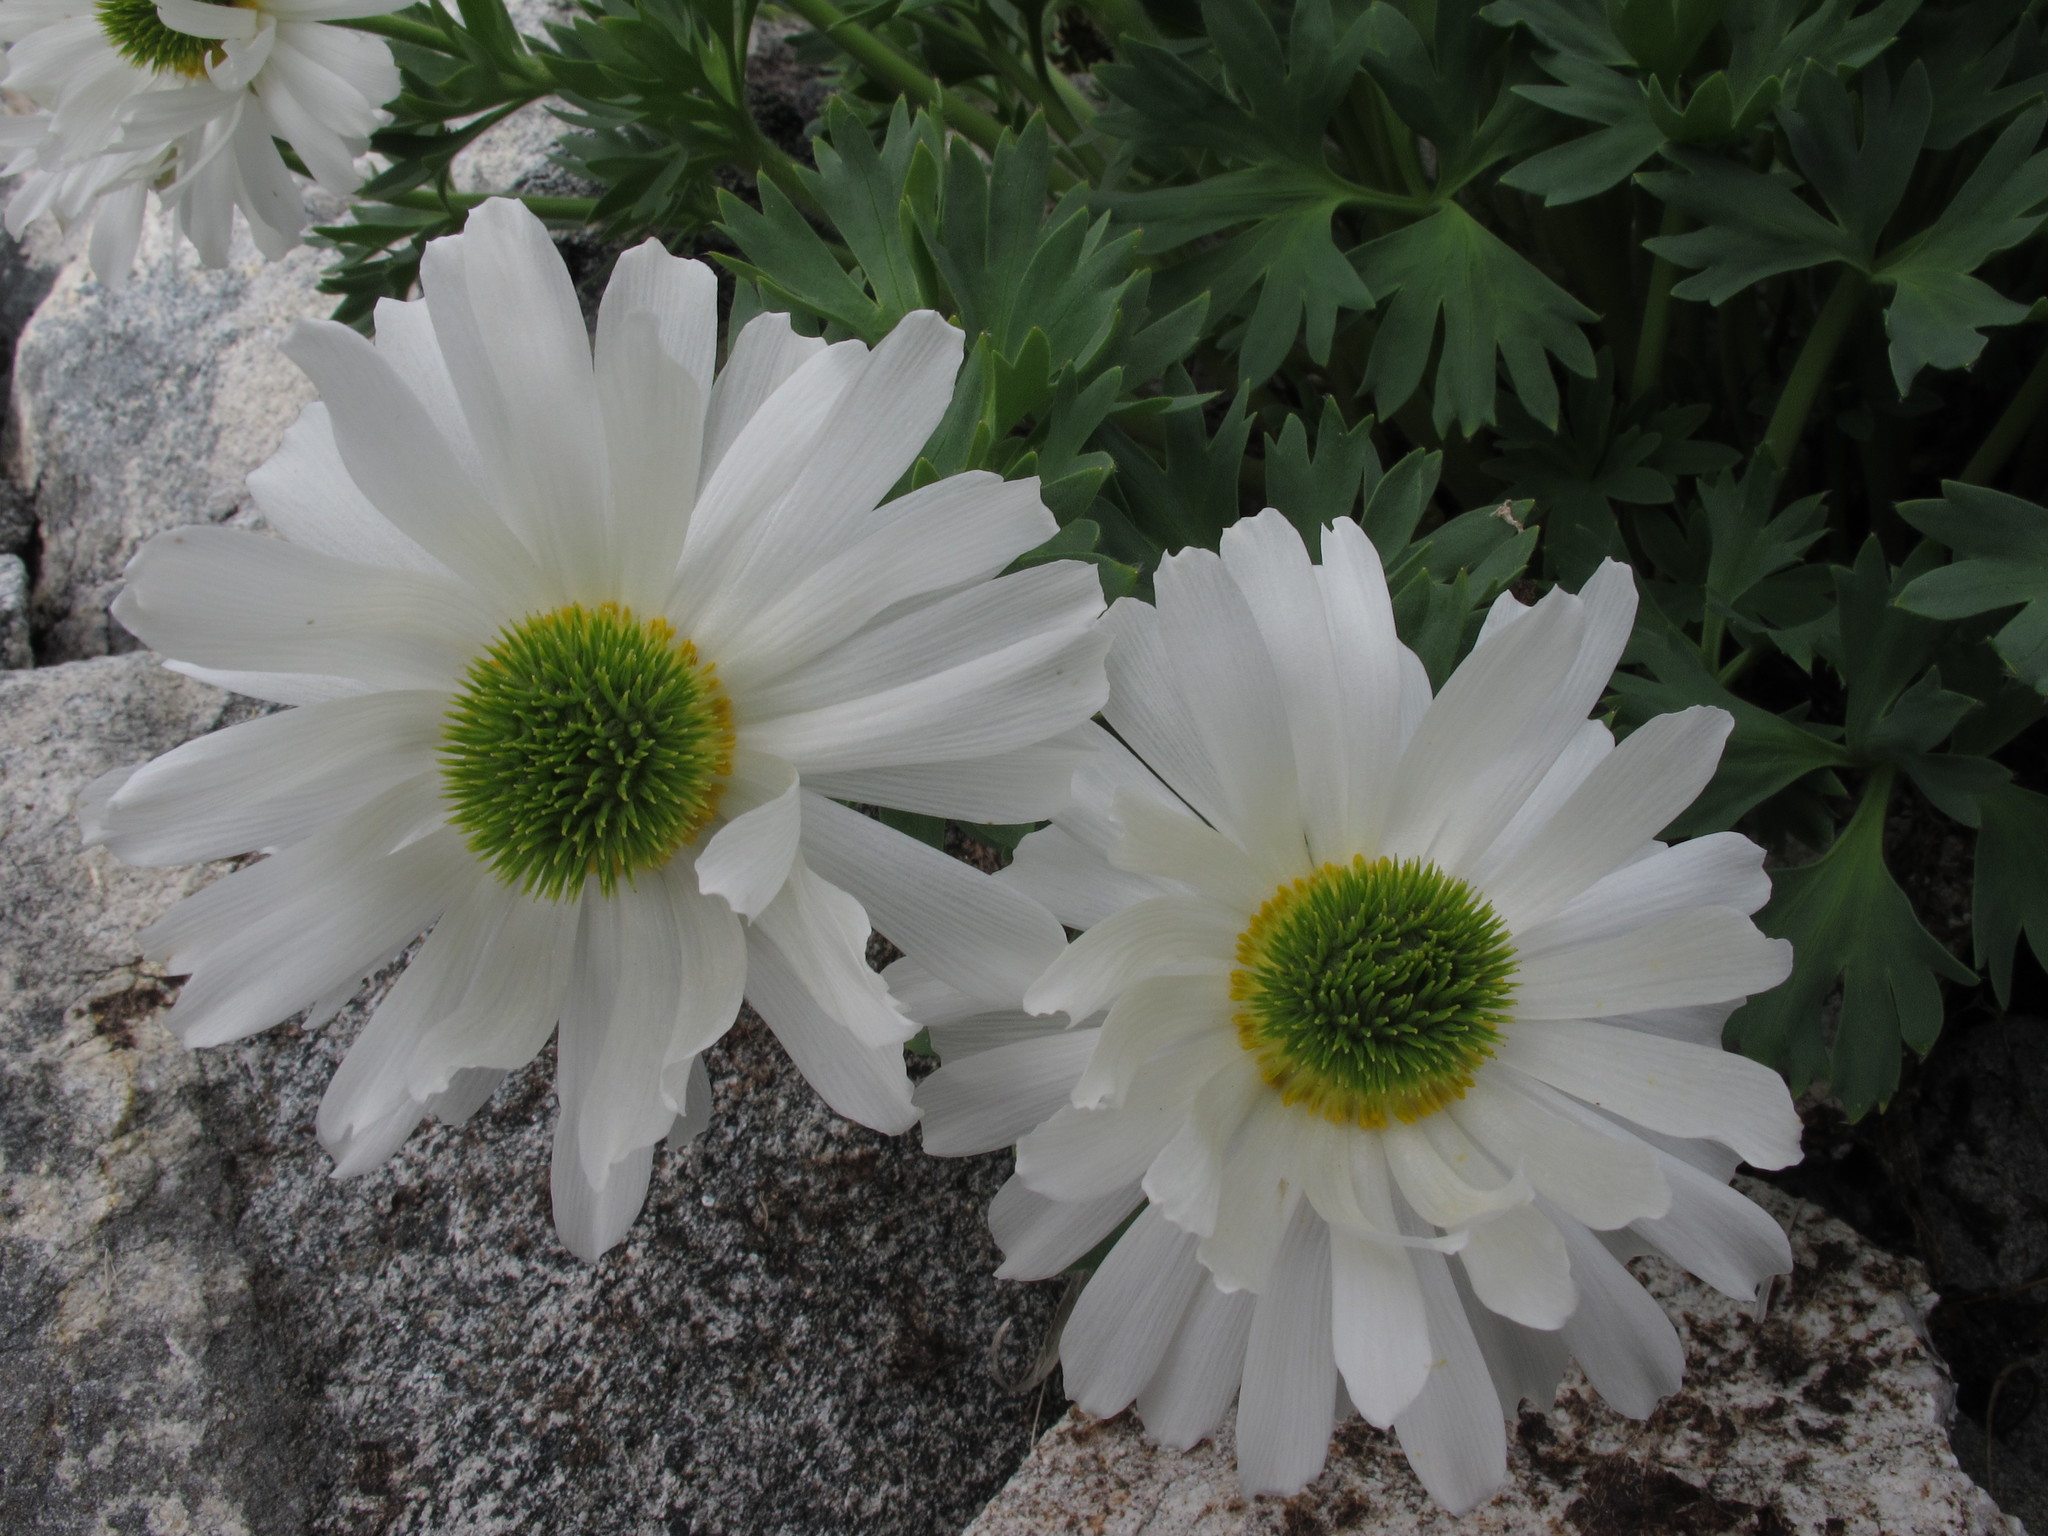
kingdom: Plantae
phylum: Tracheophyta
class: Magnoliopsida
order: Ranunculales
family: Ranunculaceae
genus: Ranunculus
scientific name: Ranunculus buchananii
